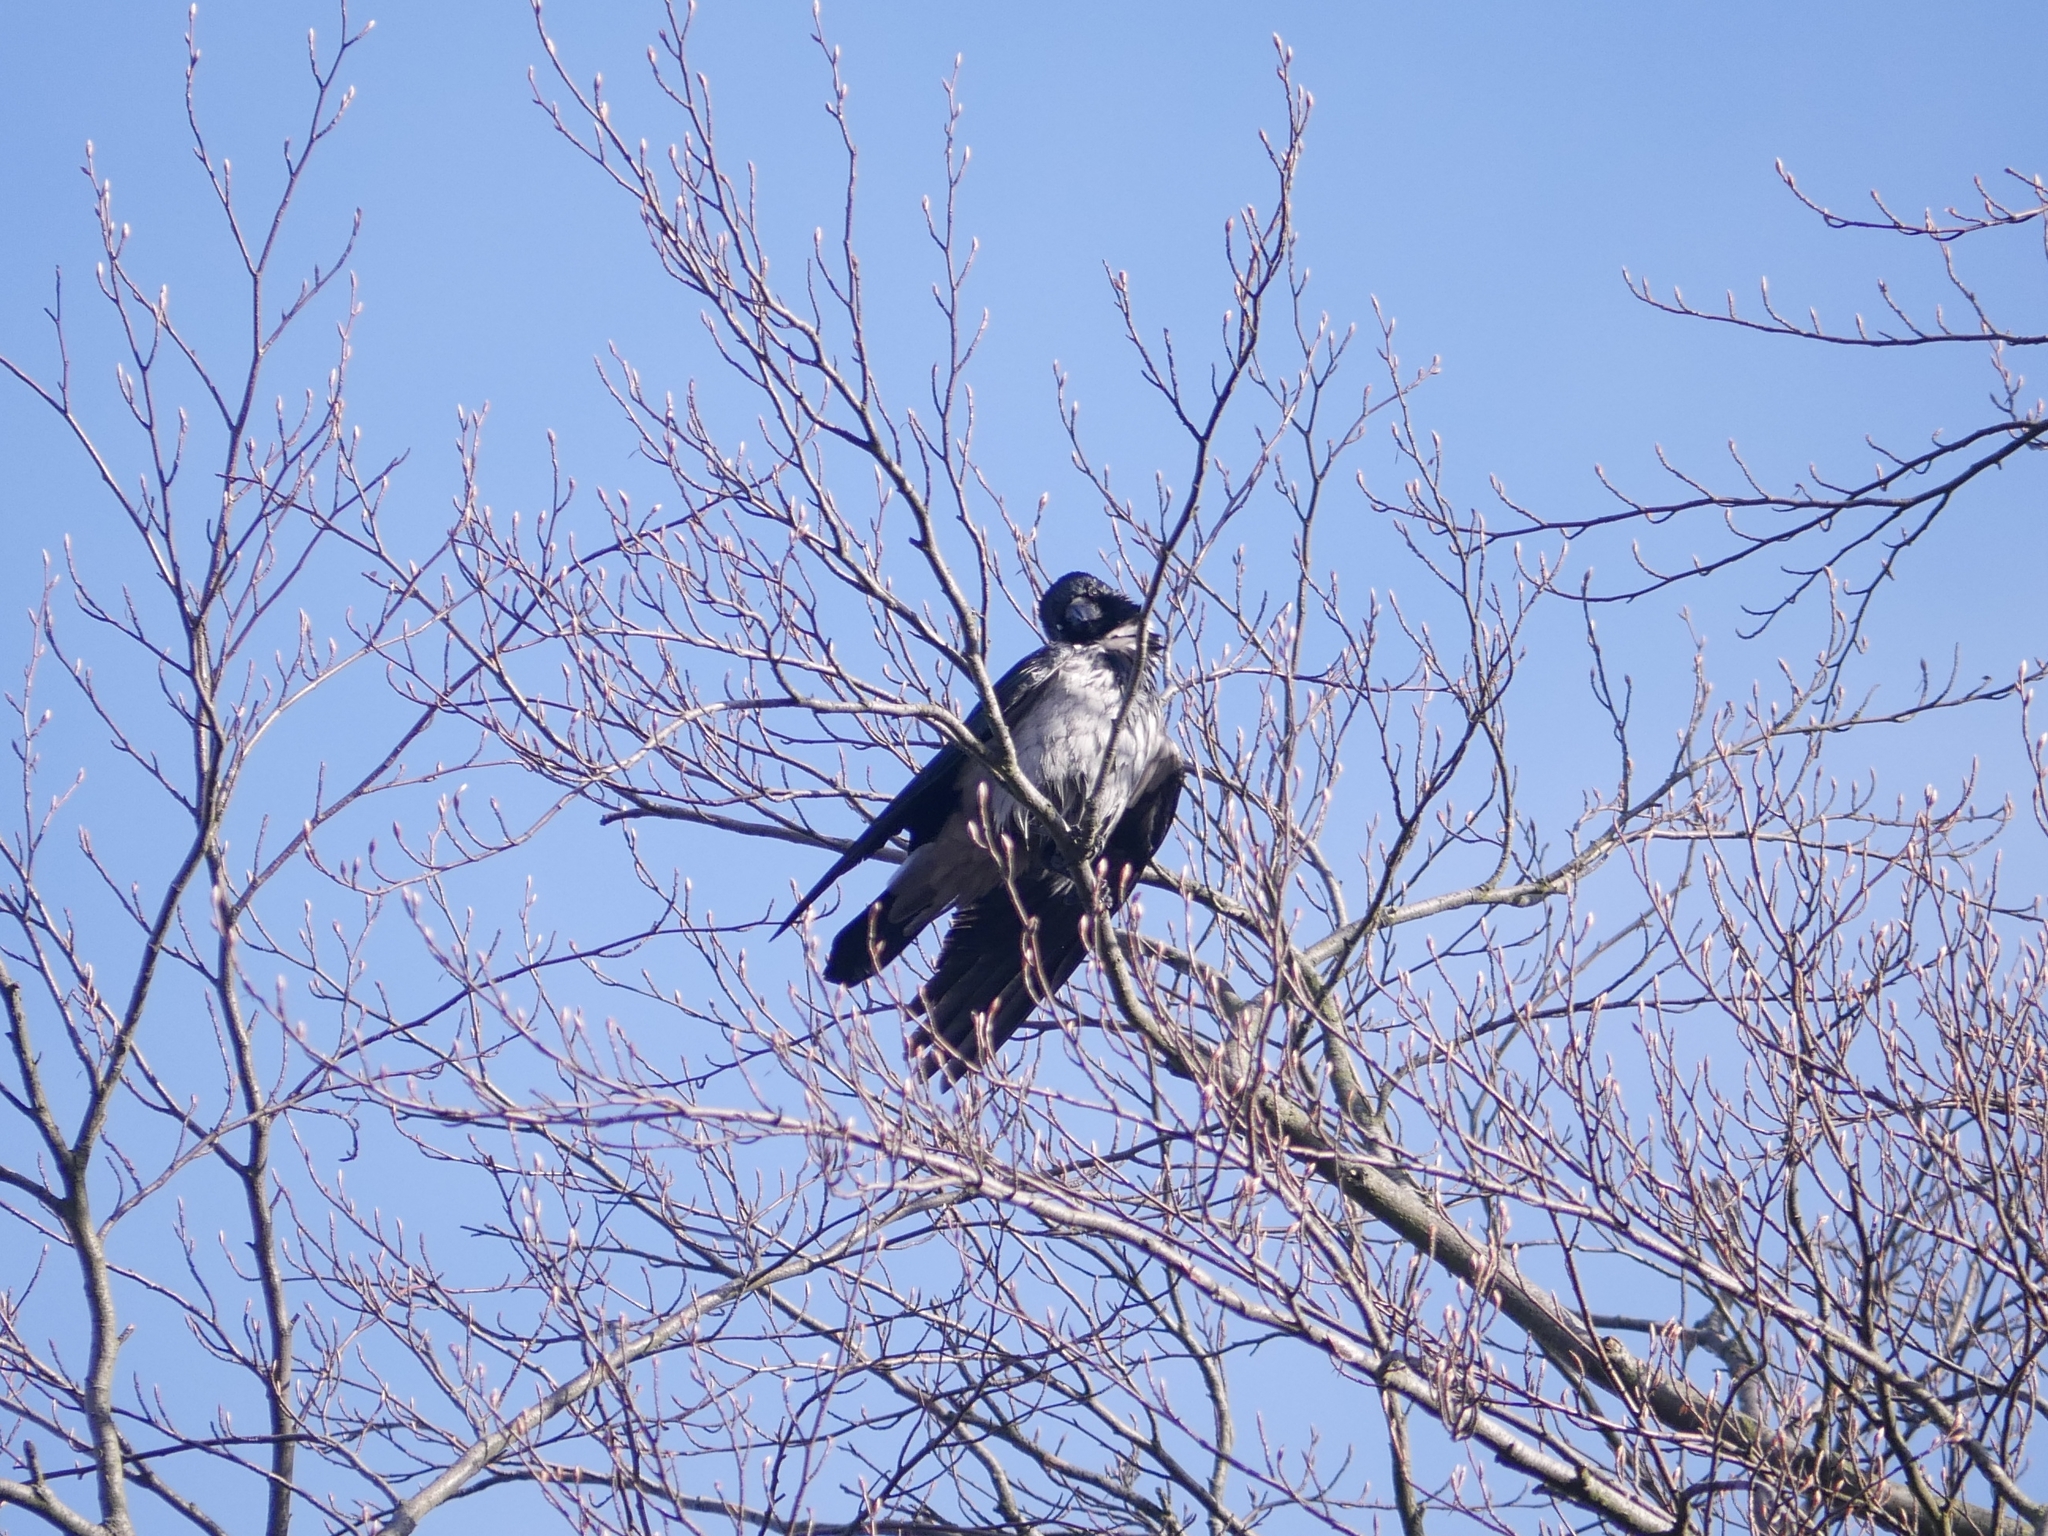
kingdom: Animalia
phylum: Chordata
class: Aves
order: Passeriformes
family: Corvidae
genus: Corvus
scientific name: Corvus cornix
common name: Hooded crow
